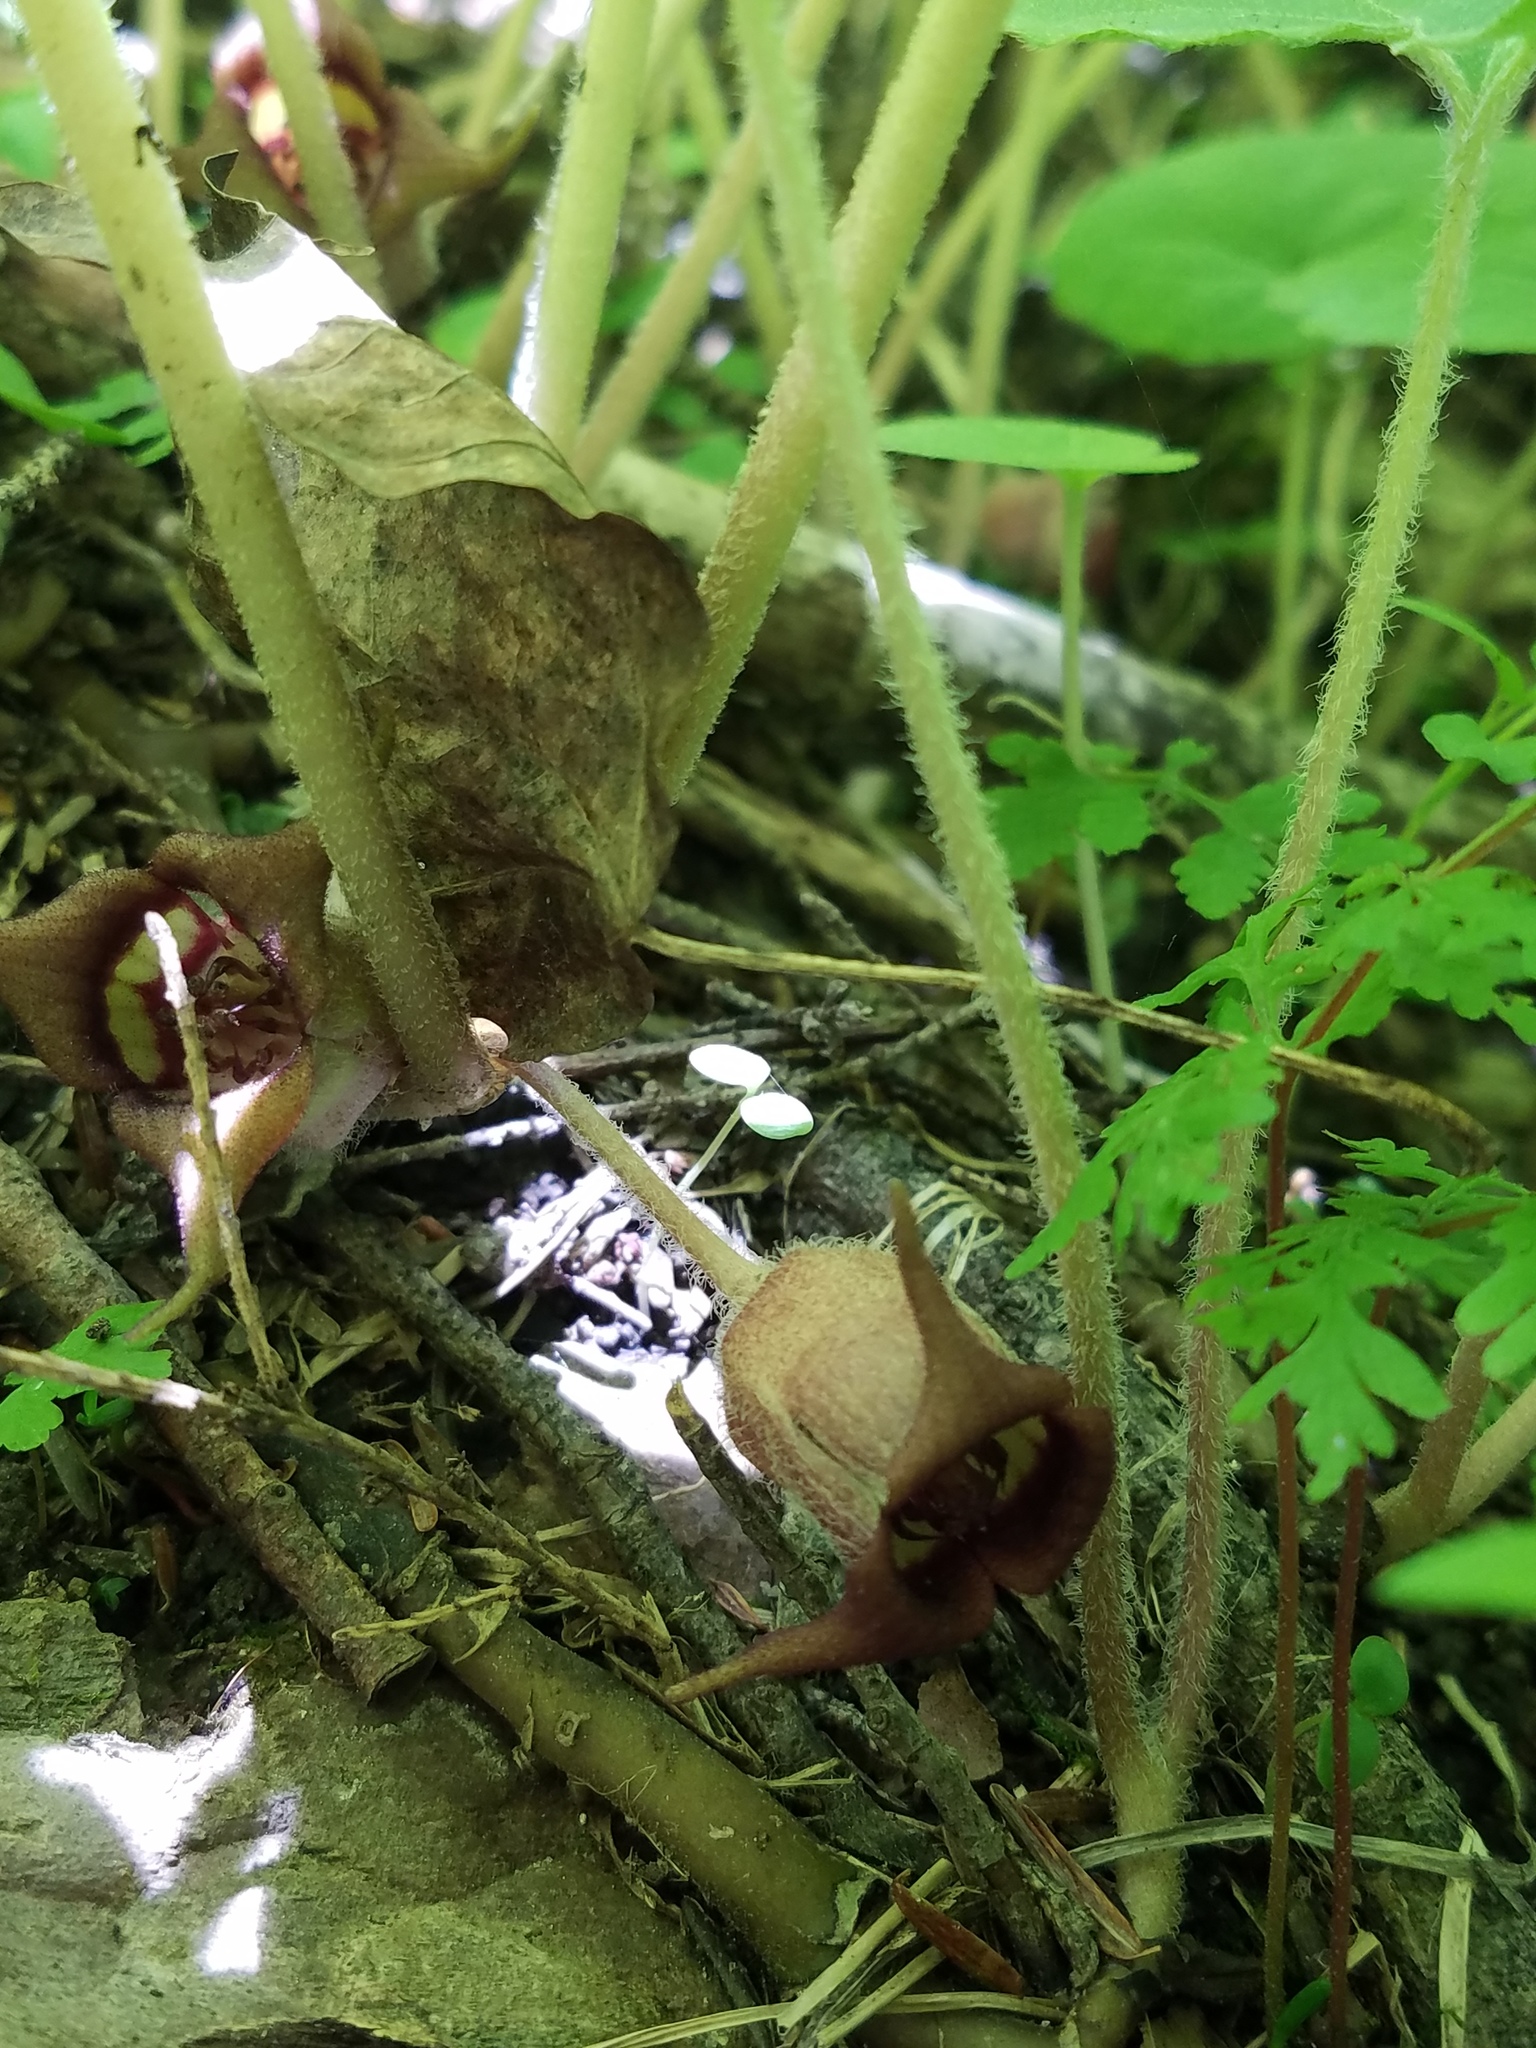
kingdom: Plantae
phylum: Tracheophyta
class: Magnoliopsida
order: Piperales
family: Aristolochiaceae
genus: Asarum
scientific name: Asarum canadense
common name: Wild ginger
